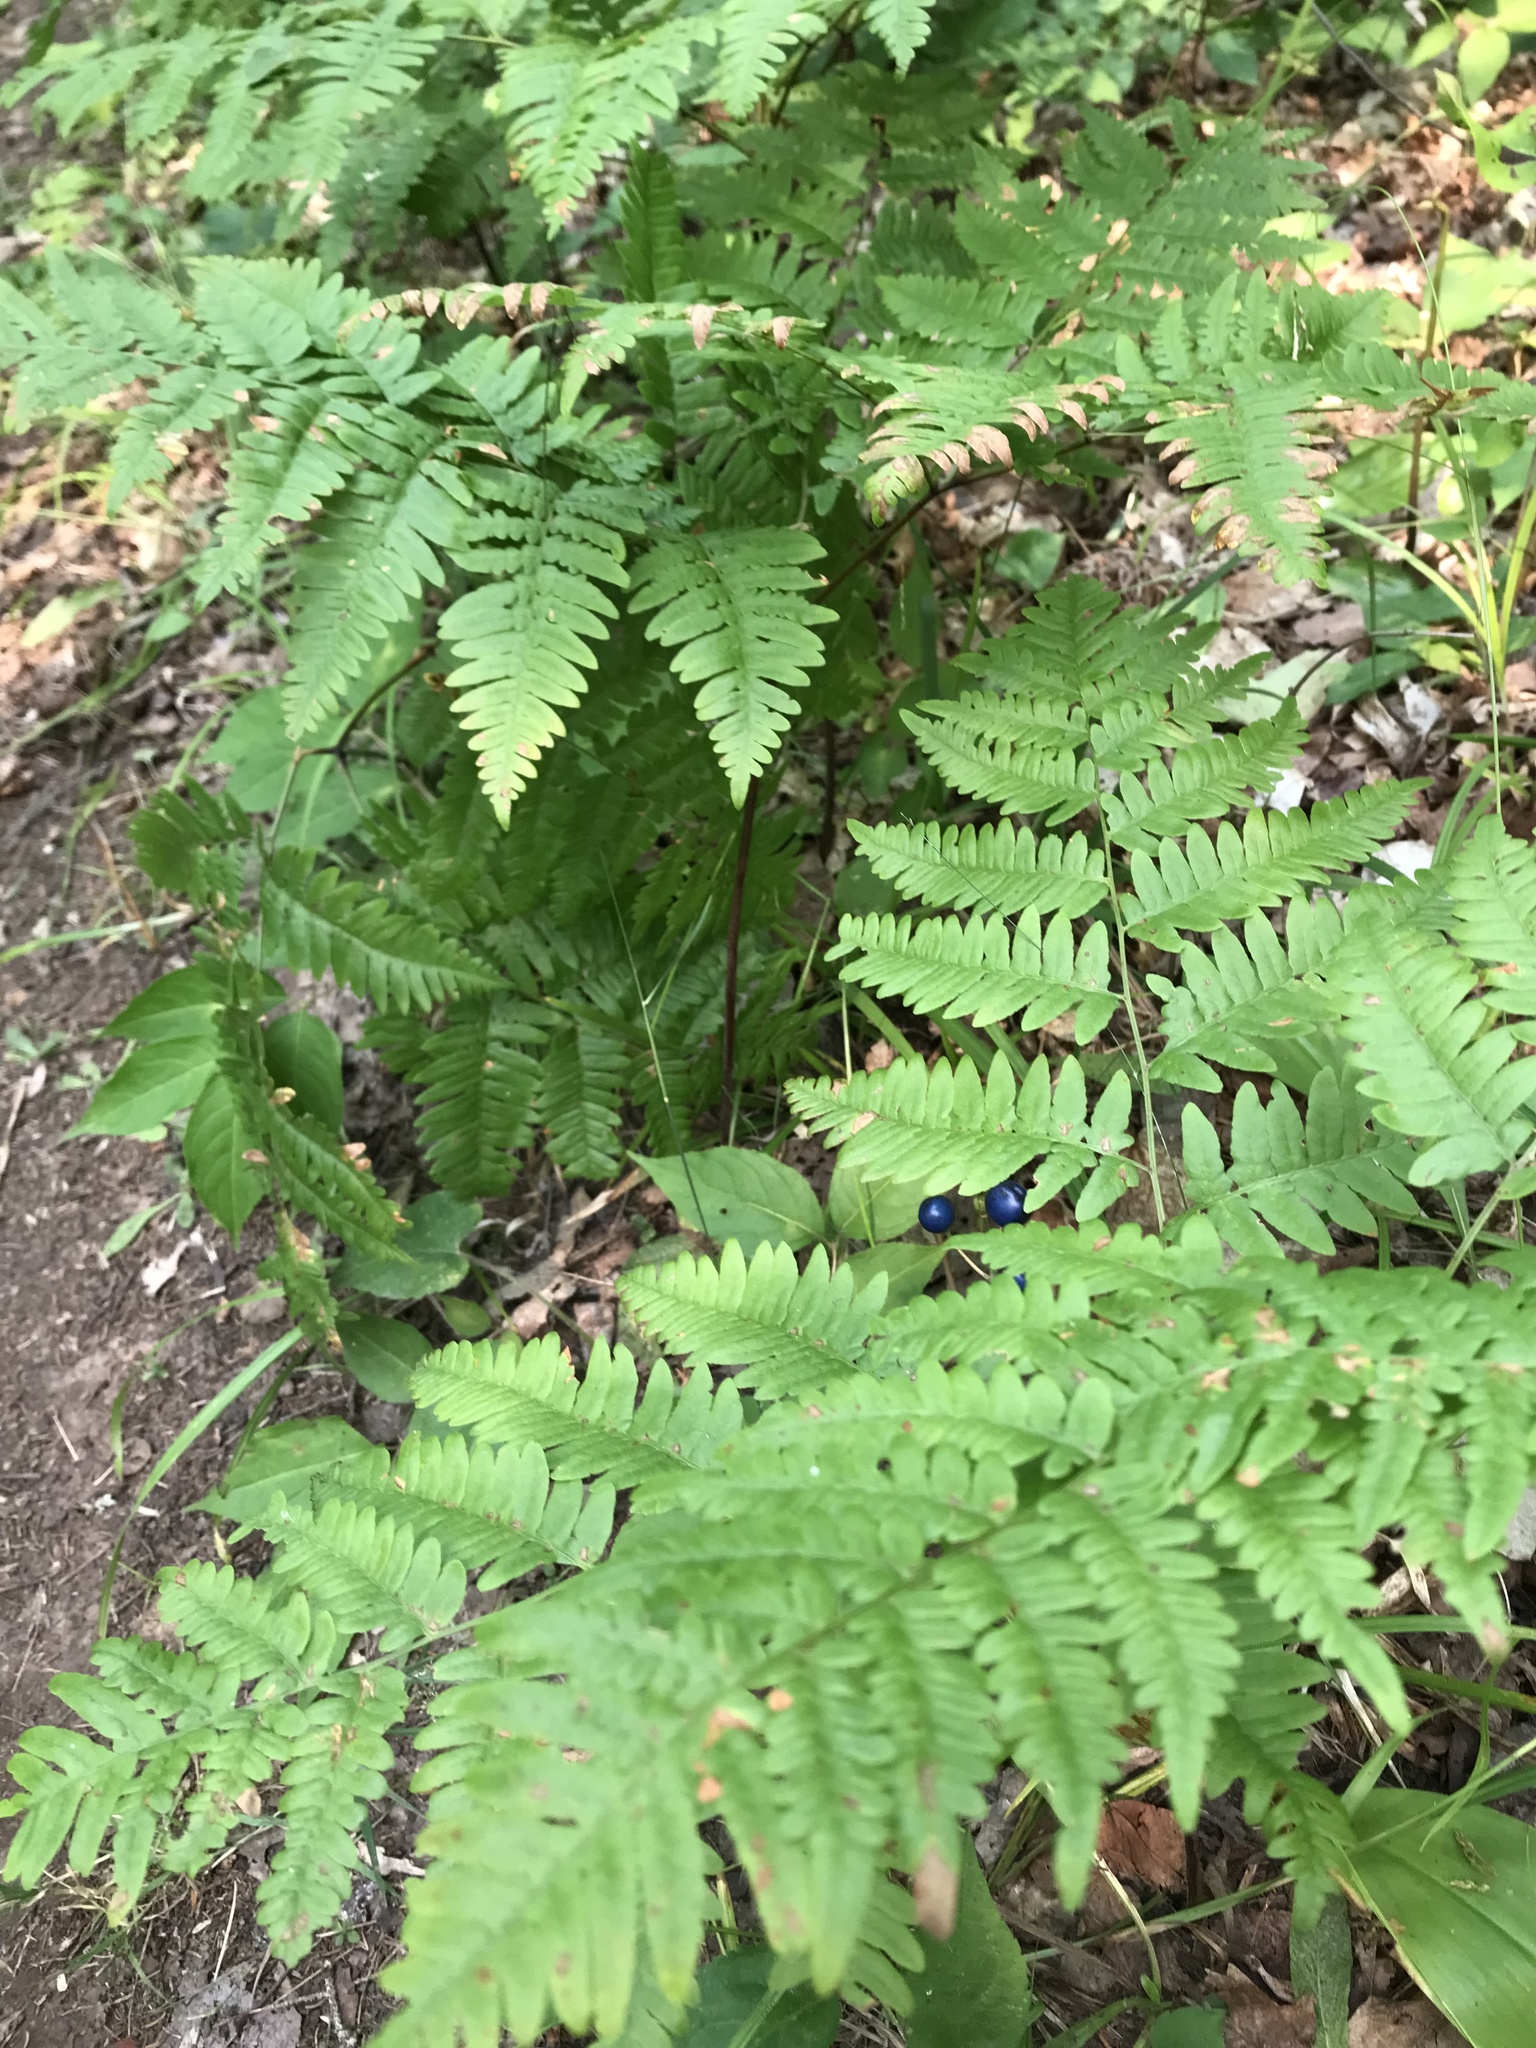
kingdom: Plantae
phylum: Tracheophyta
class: Polypodiopsida
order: Polypodiales
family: Dennstaedtiaceae
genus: Pteridium
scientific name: Pteridium aquilinum
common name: Bracken
